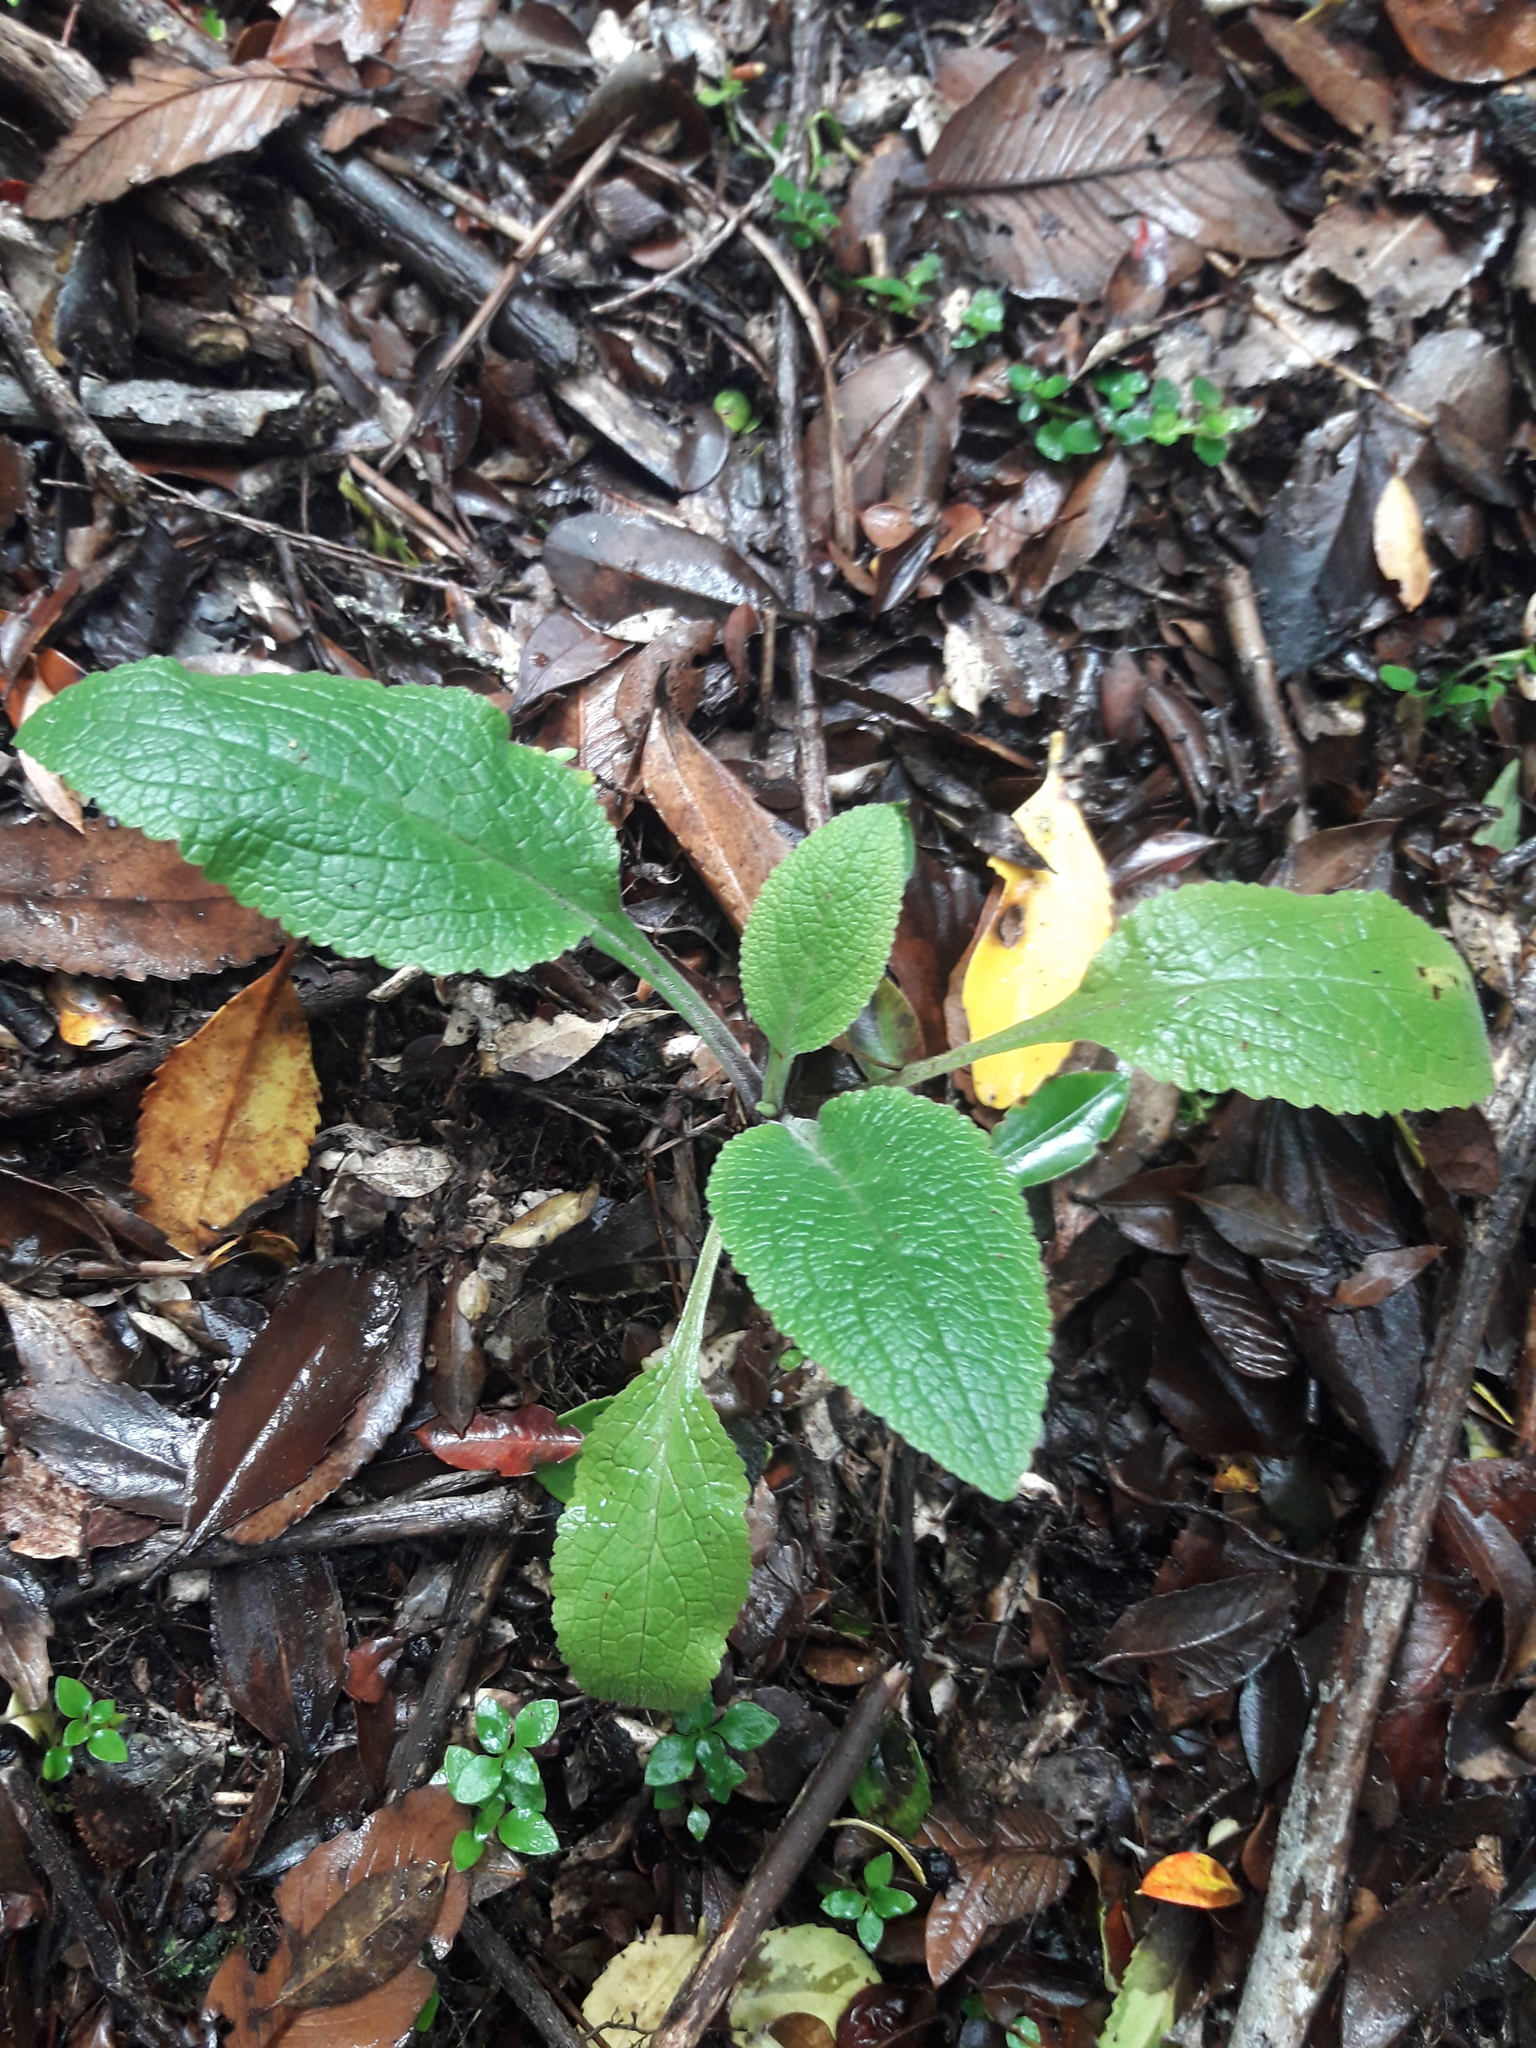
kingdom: Plantae
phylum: Tracheophyta
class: Magnoliopsida
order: Lamiales
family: Plantaginaceae
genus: Digitalis
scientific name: Digitalis purpurea
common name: Foxglove
